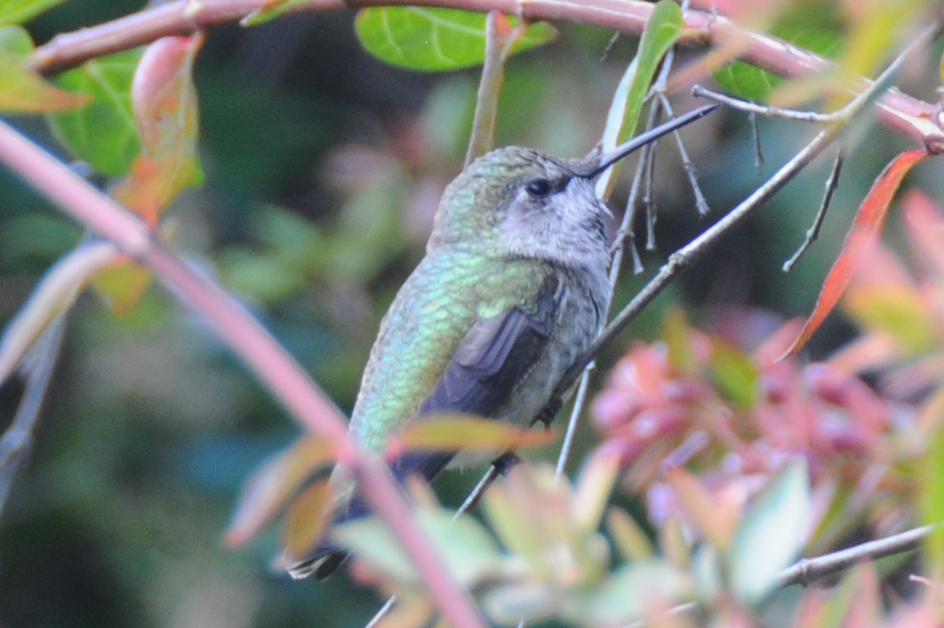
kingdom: Animalia
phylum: Chordata
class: Aves
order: Apodiformes
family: Trochilidae
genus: Calypte
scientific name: Calypte anna
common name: Anna's hummingbird
